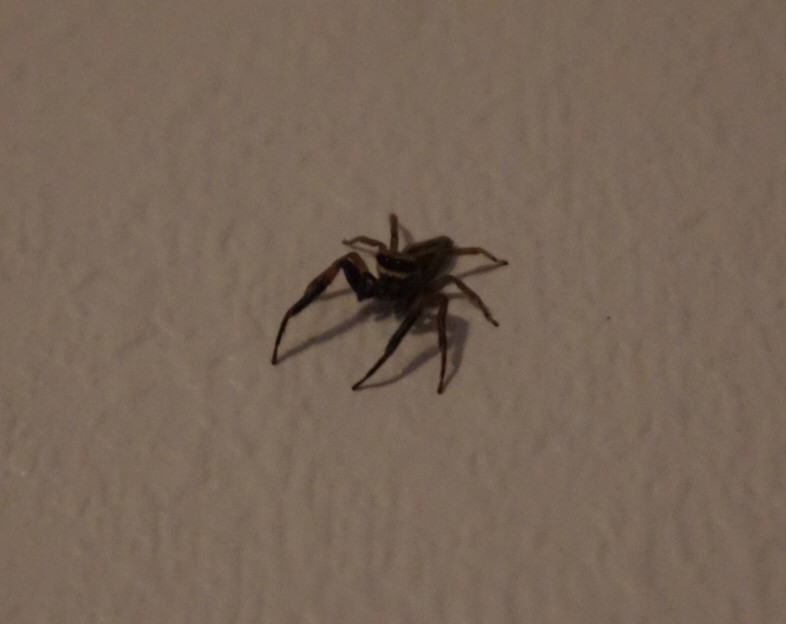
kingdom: Animalia
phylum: Arthropoda
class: Arachnida
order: Araneae
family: Salticidae
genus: Trite
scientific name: Trite auricoma
